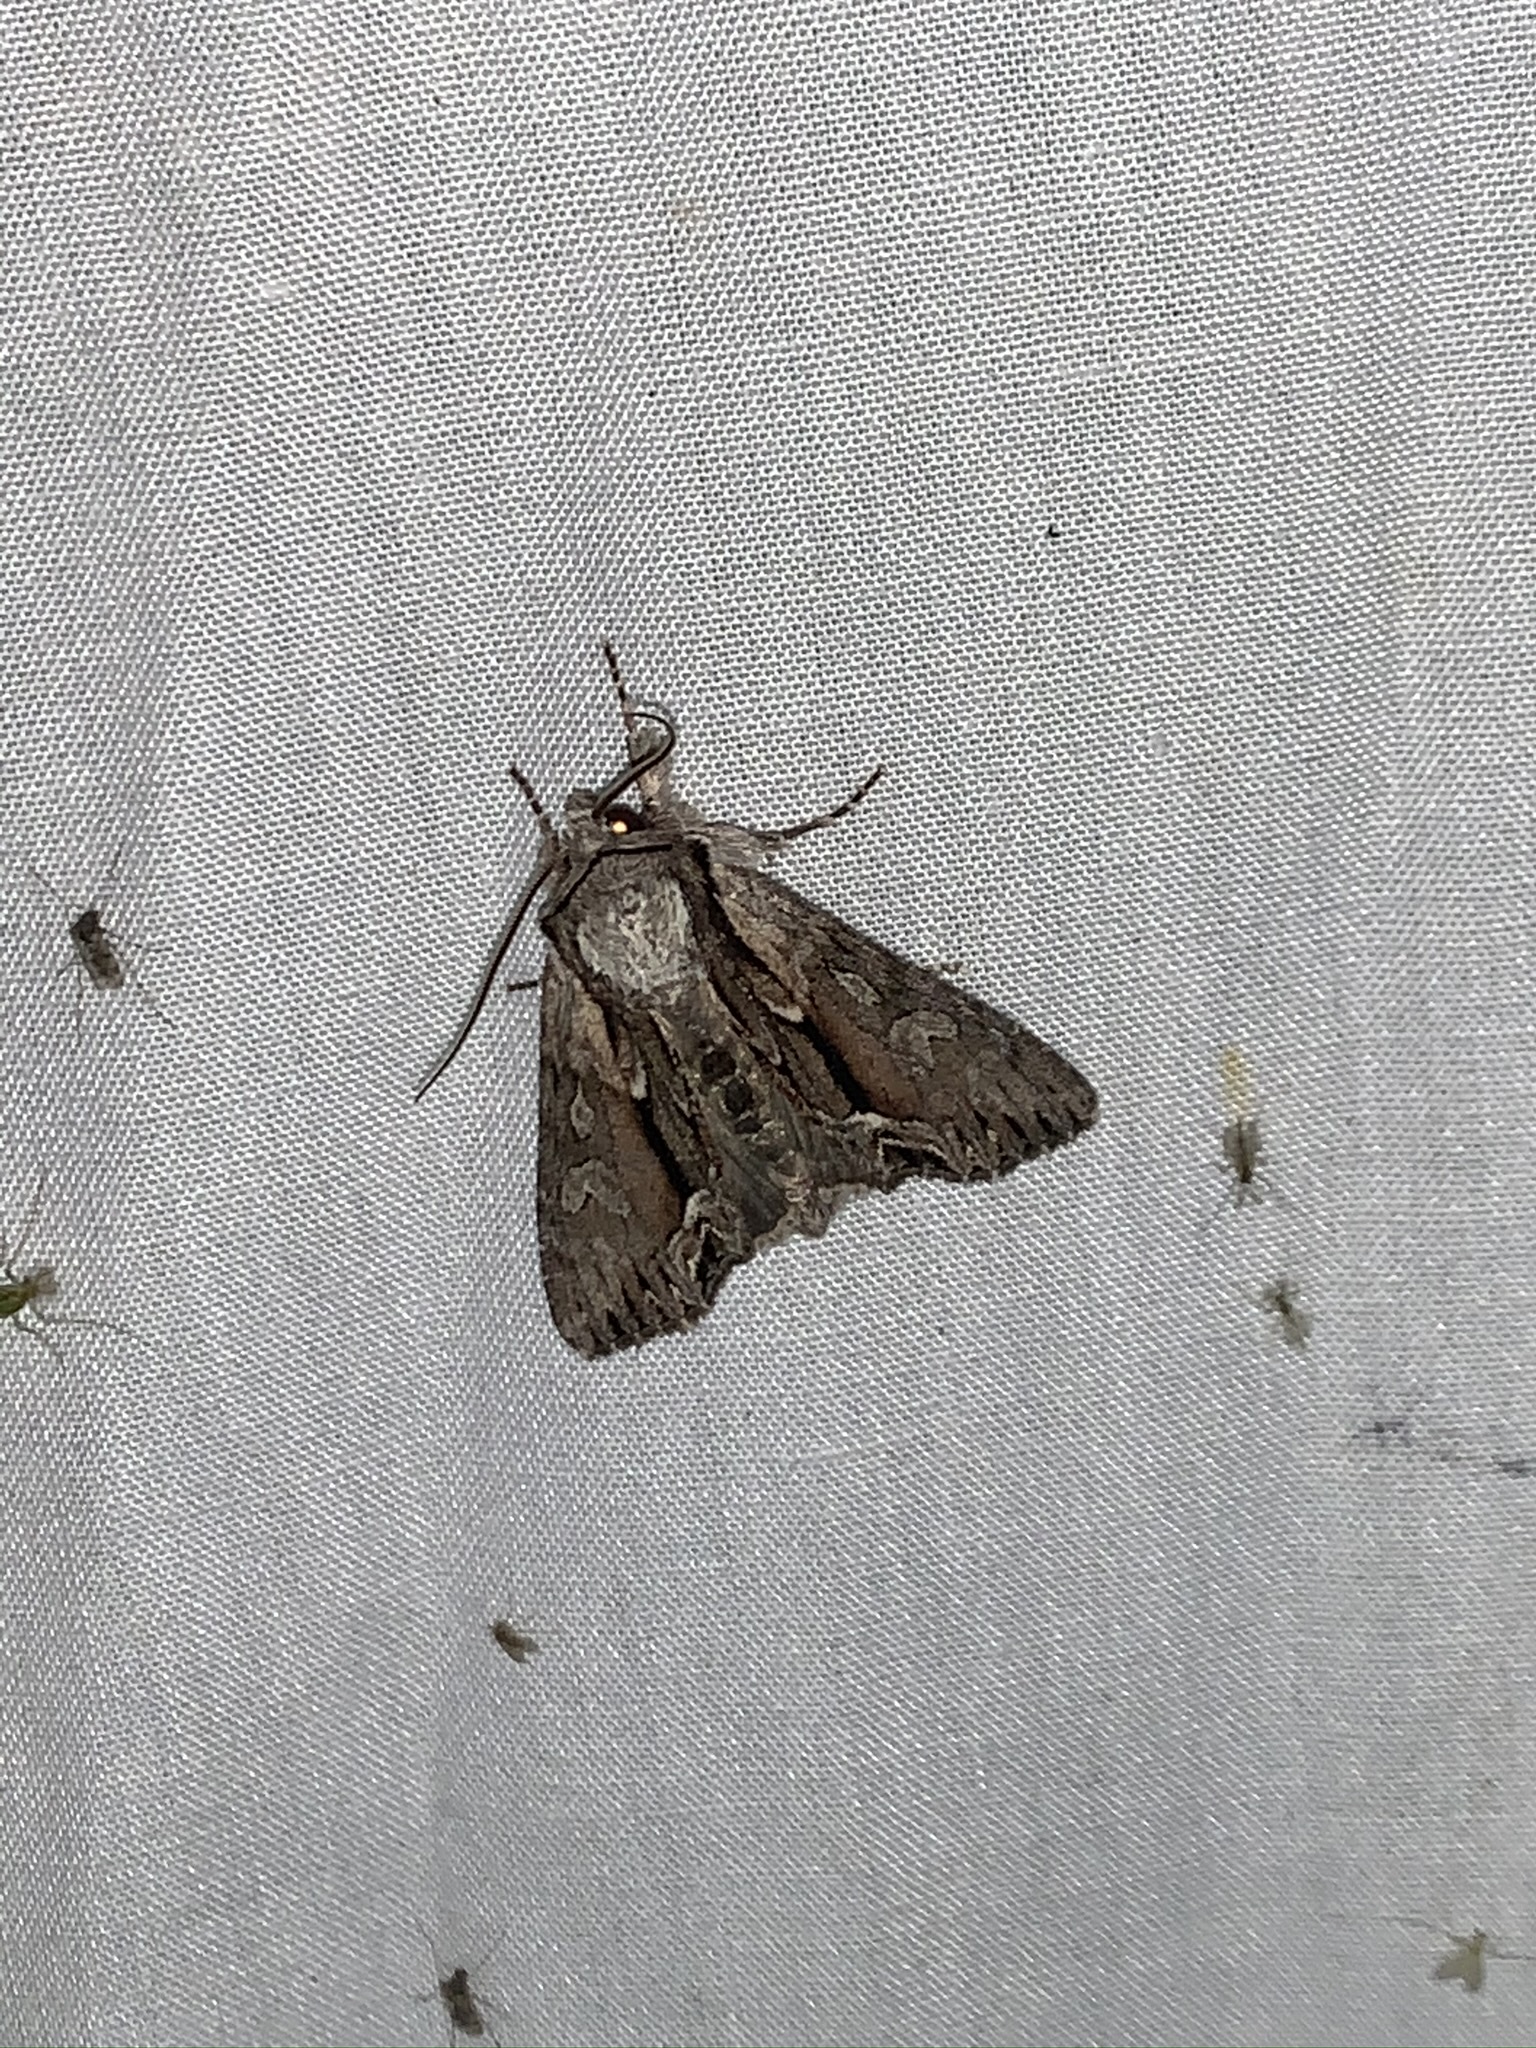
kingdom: Animalia
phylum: Arthropoda
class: Insecta
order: Lepidoptera
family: Noctuidae
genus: Hyppa
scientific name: Hyppa xylinoides
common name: Common hyppa moth
